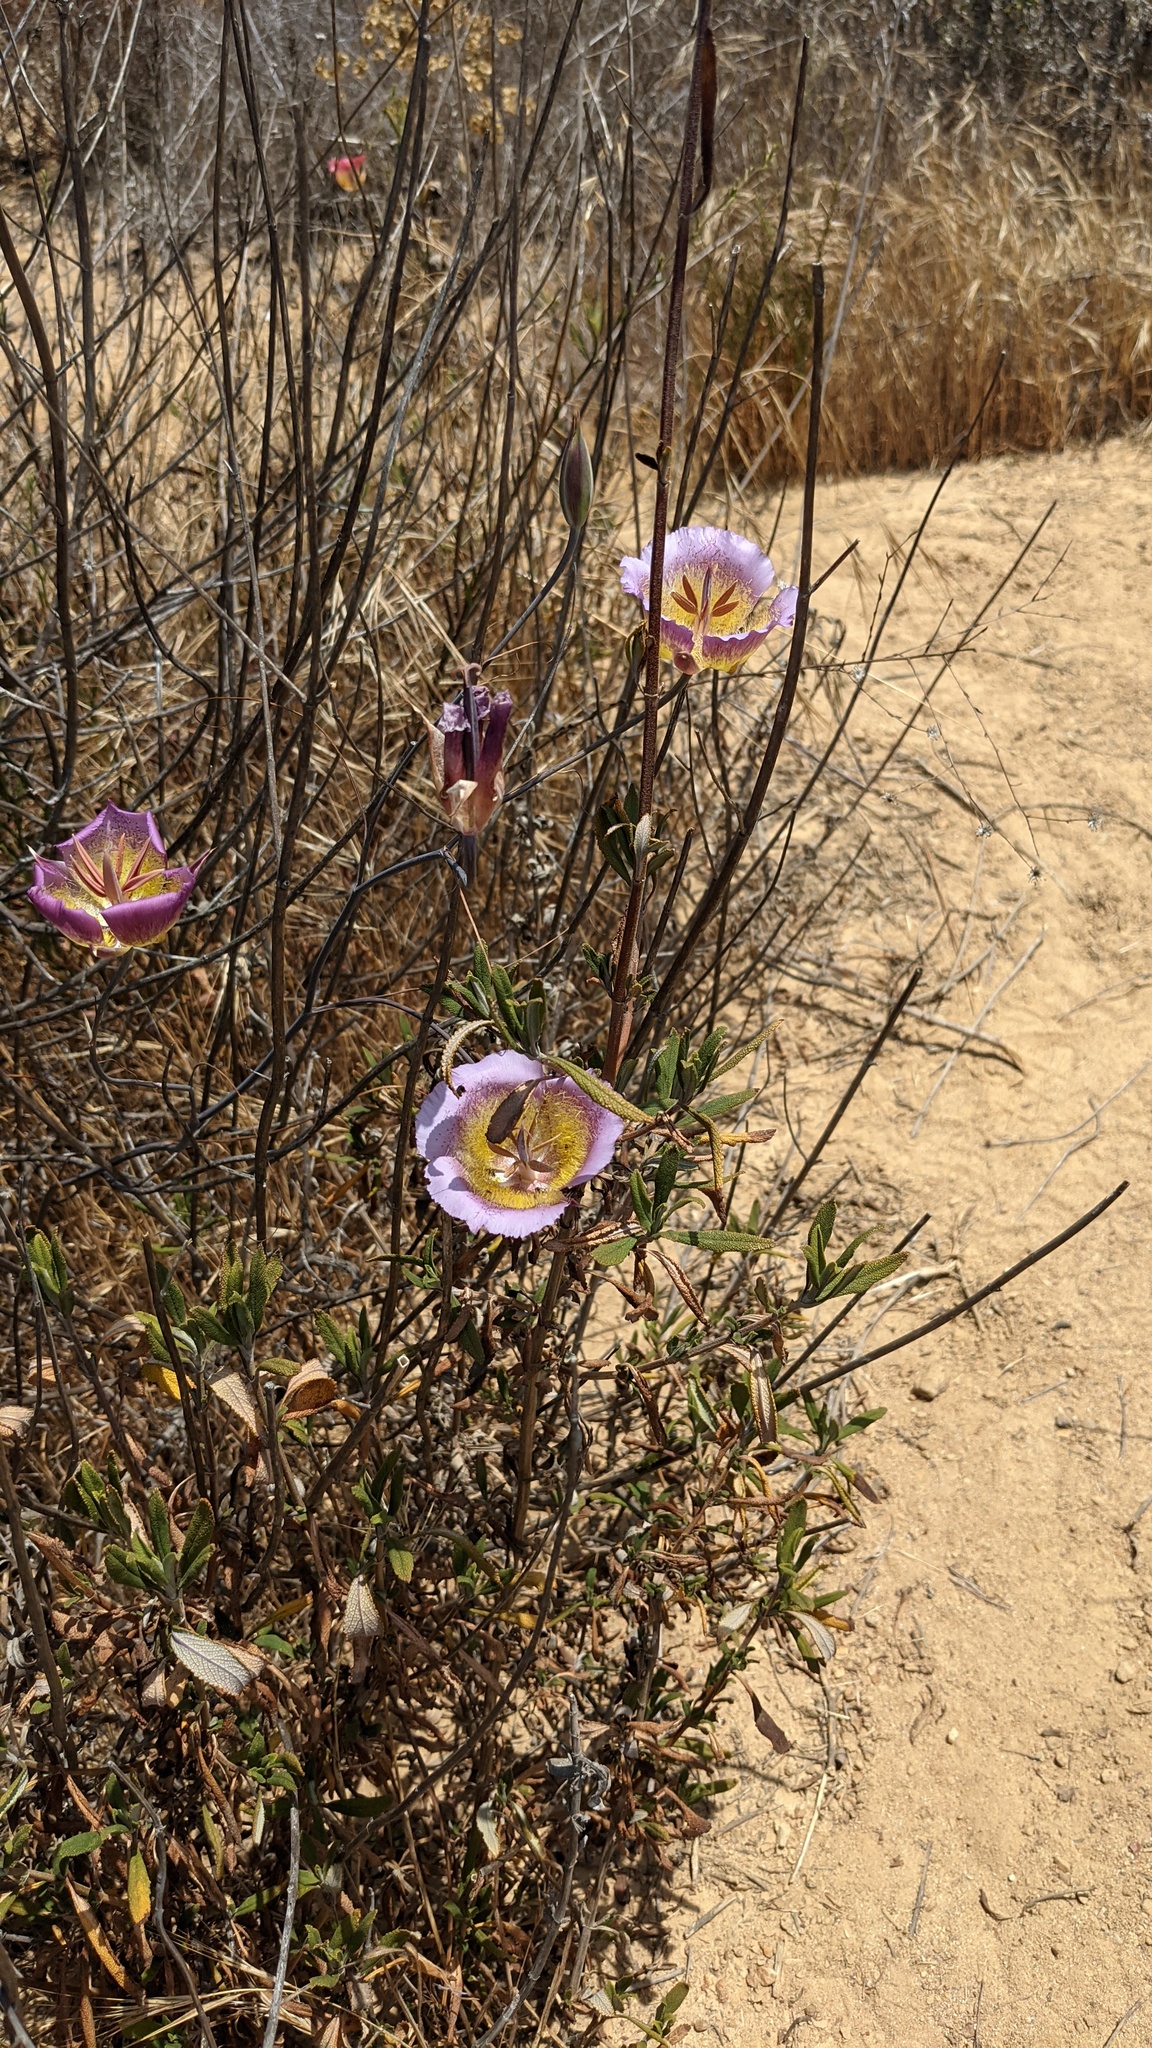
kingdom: Plantae
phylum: Tracheophyta
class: Liliopsida
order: Liliales
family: Liliaceae
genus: Calochortus
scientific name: Calochortus plummerae
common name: Plummer's mariposa-lily
